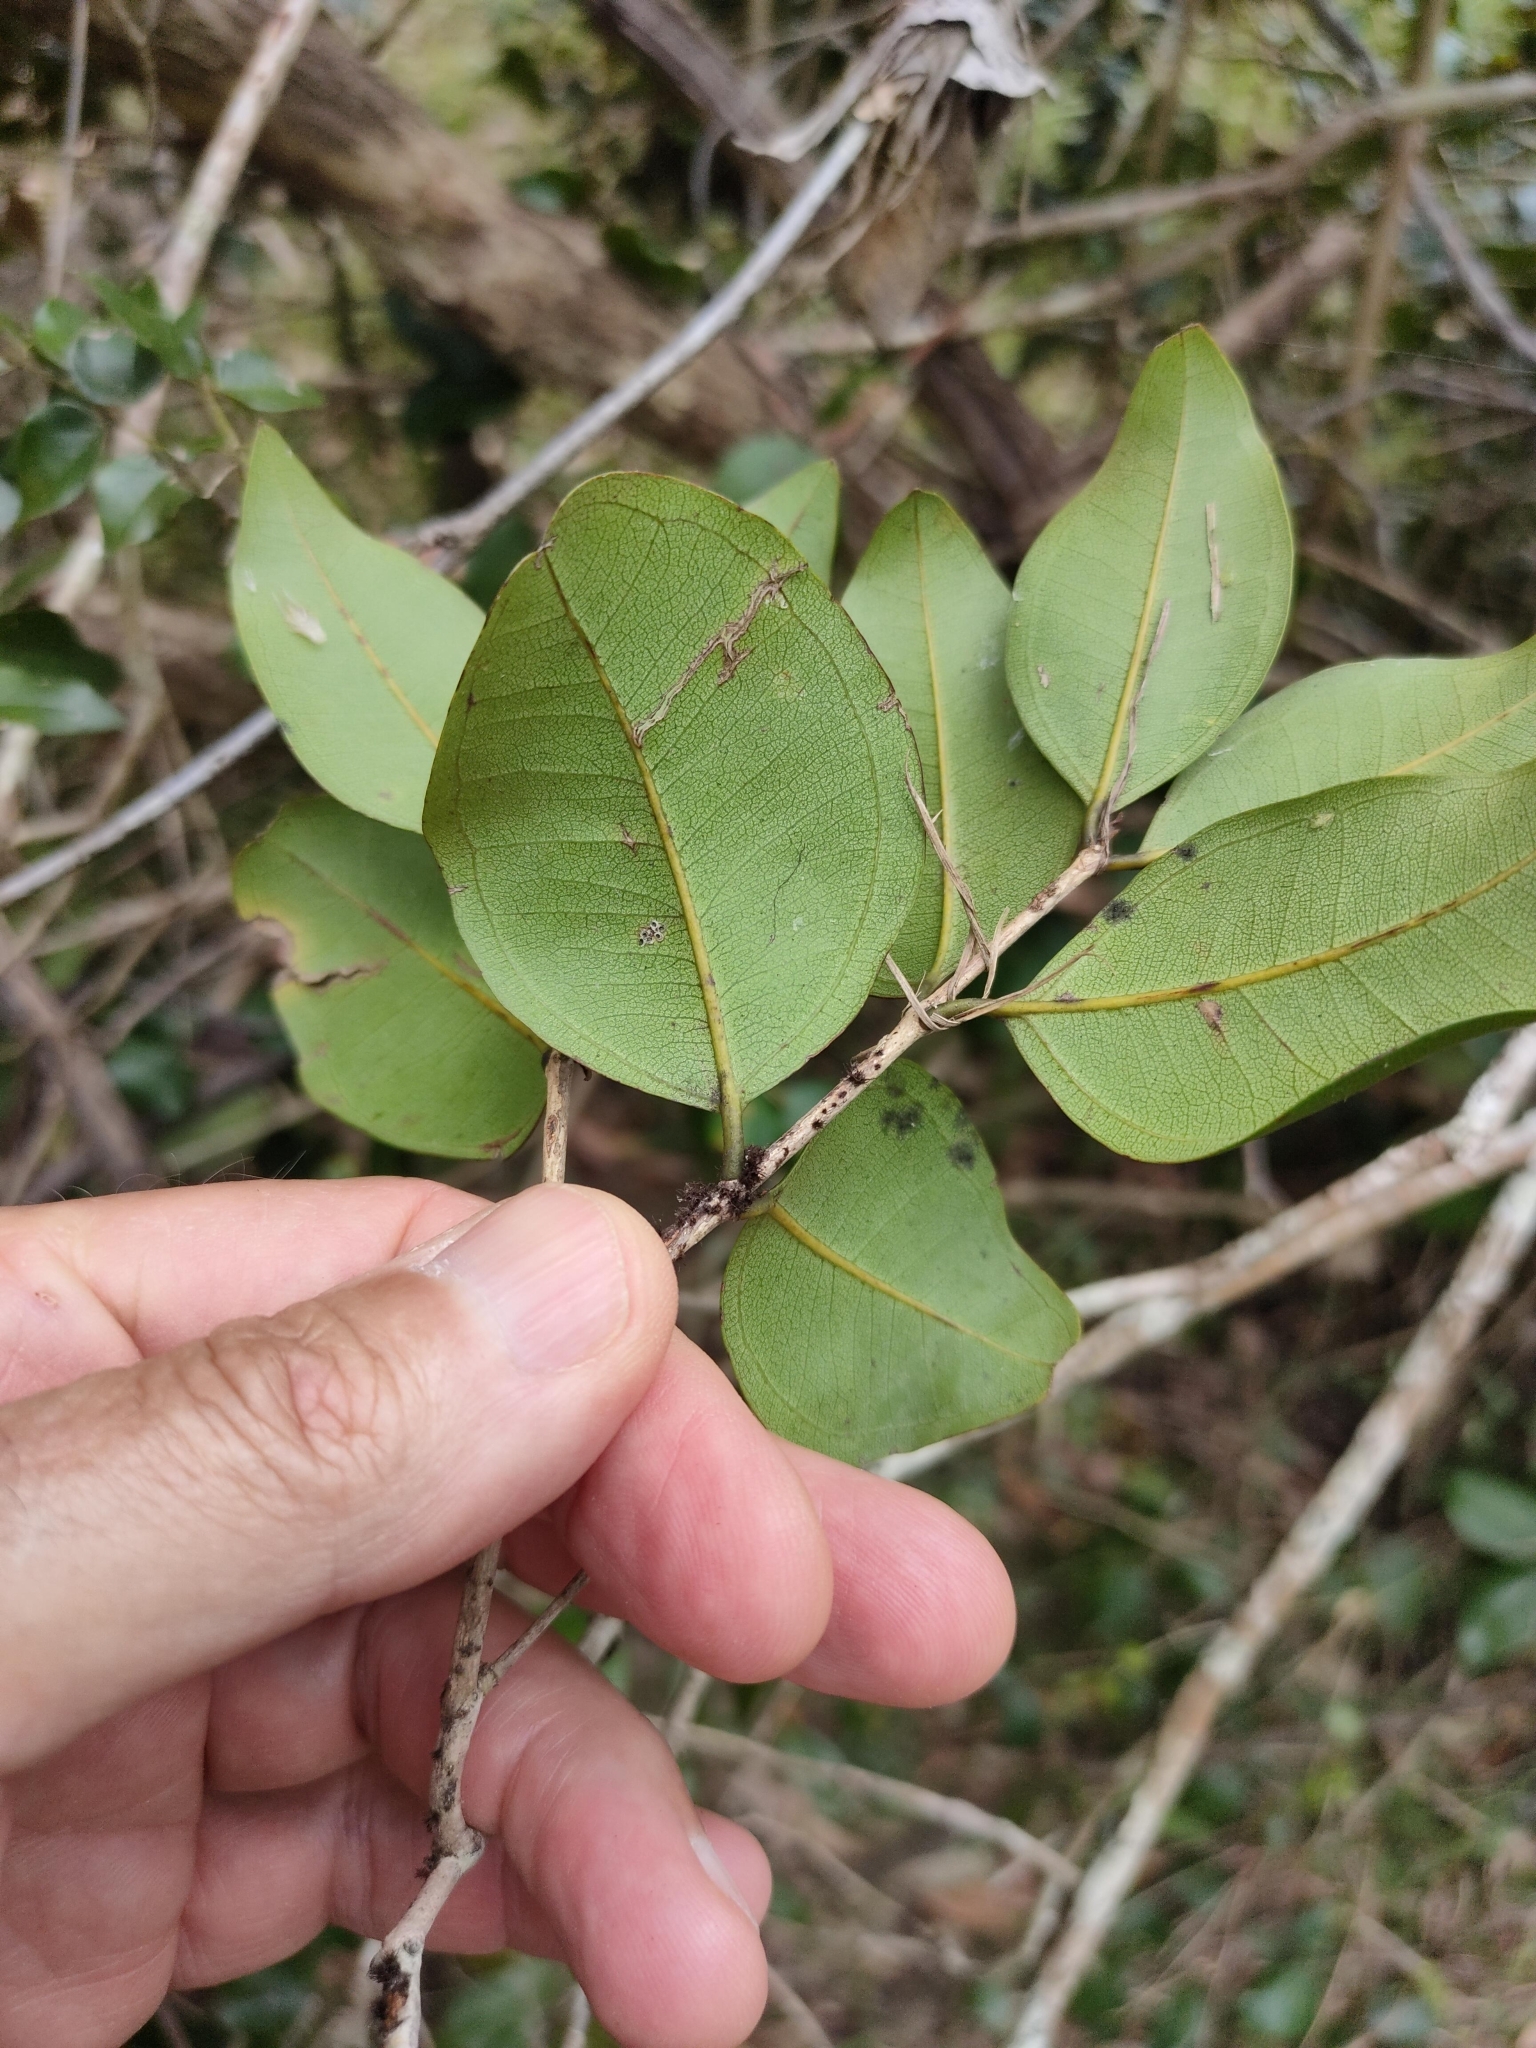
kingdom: Plantae
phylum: Tracheophyta
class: Magnoliopsida
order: Myrtales
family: Myrtaceae
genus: Rhodamnia
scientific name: Rhodamnia dumicola
